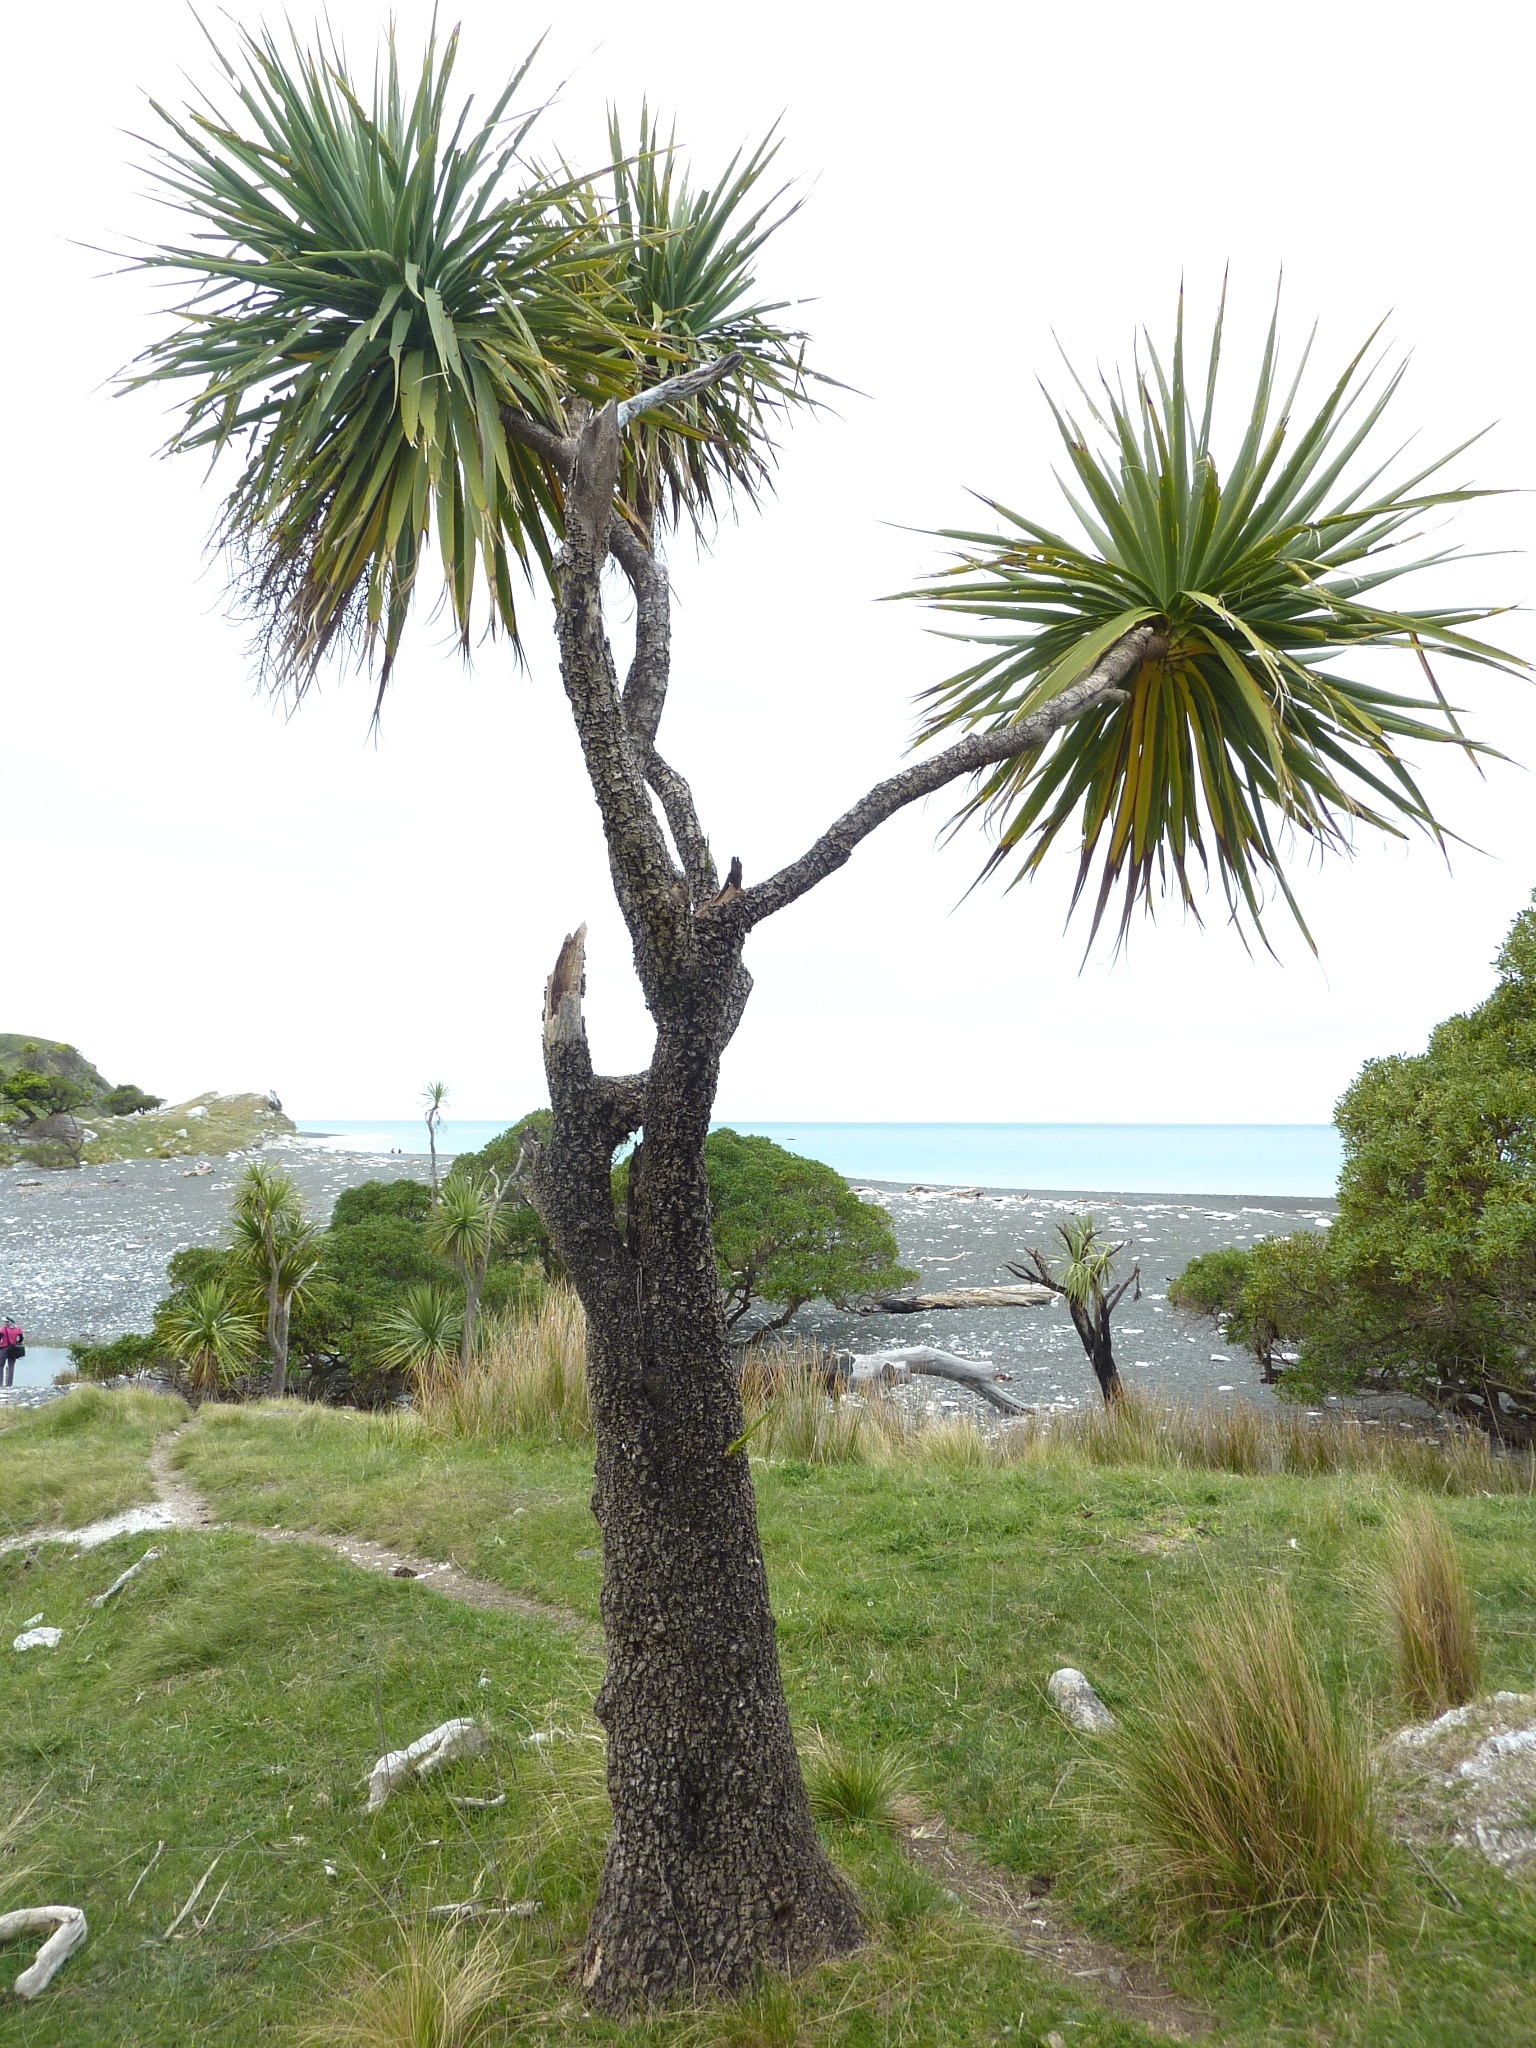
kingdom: Plantae
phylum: Tracheophyta
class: Liliopsida
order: Asparagales
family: Asparagaceae
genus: Cordyline
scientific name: Cordyline australis
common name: Cabbage-palm
